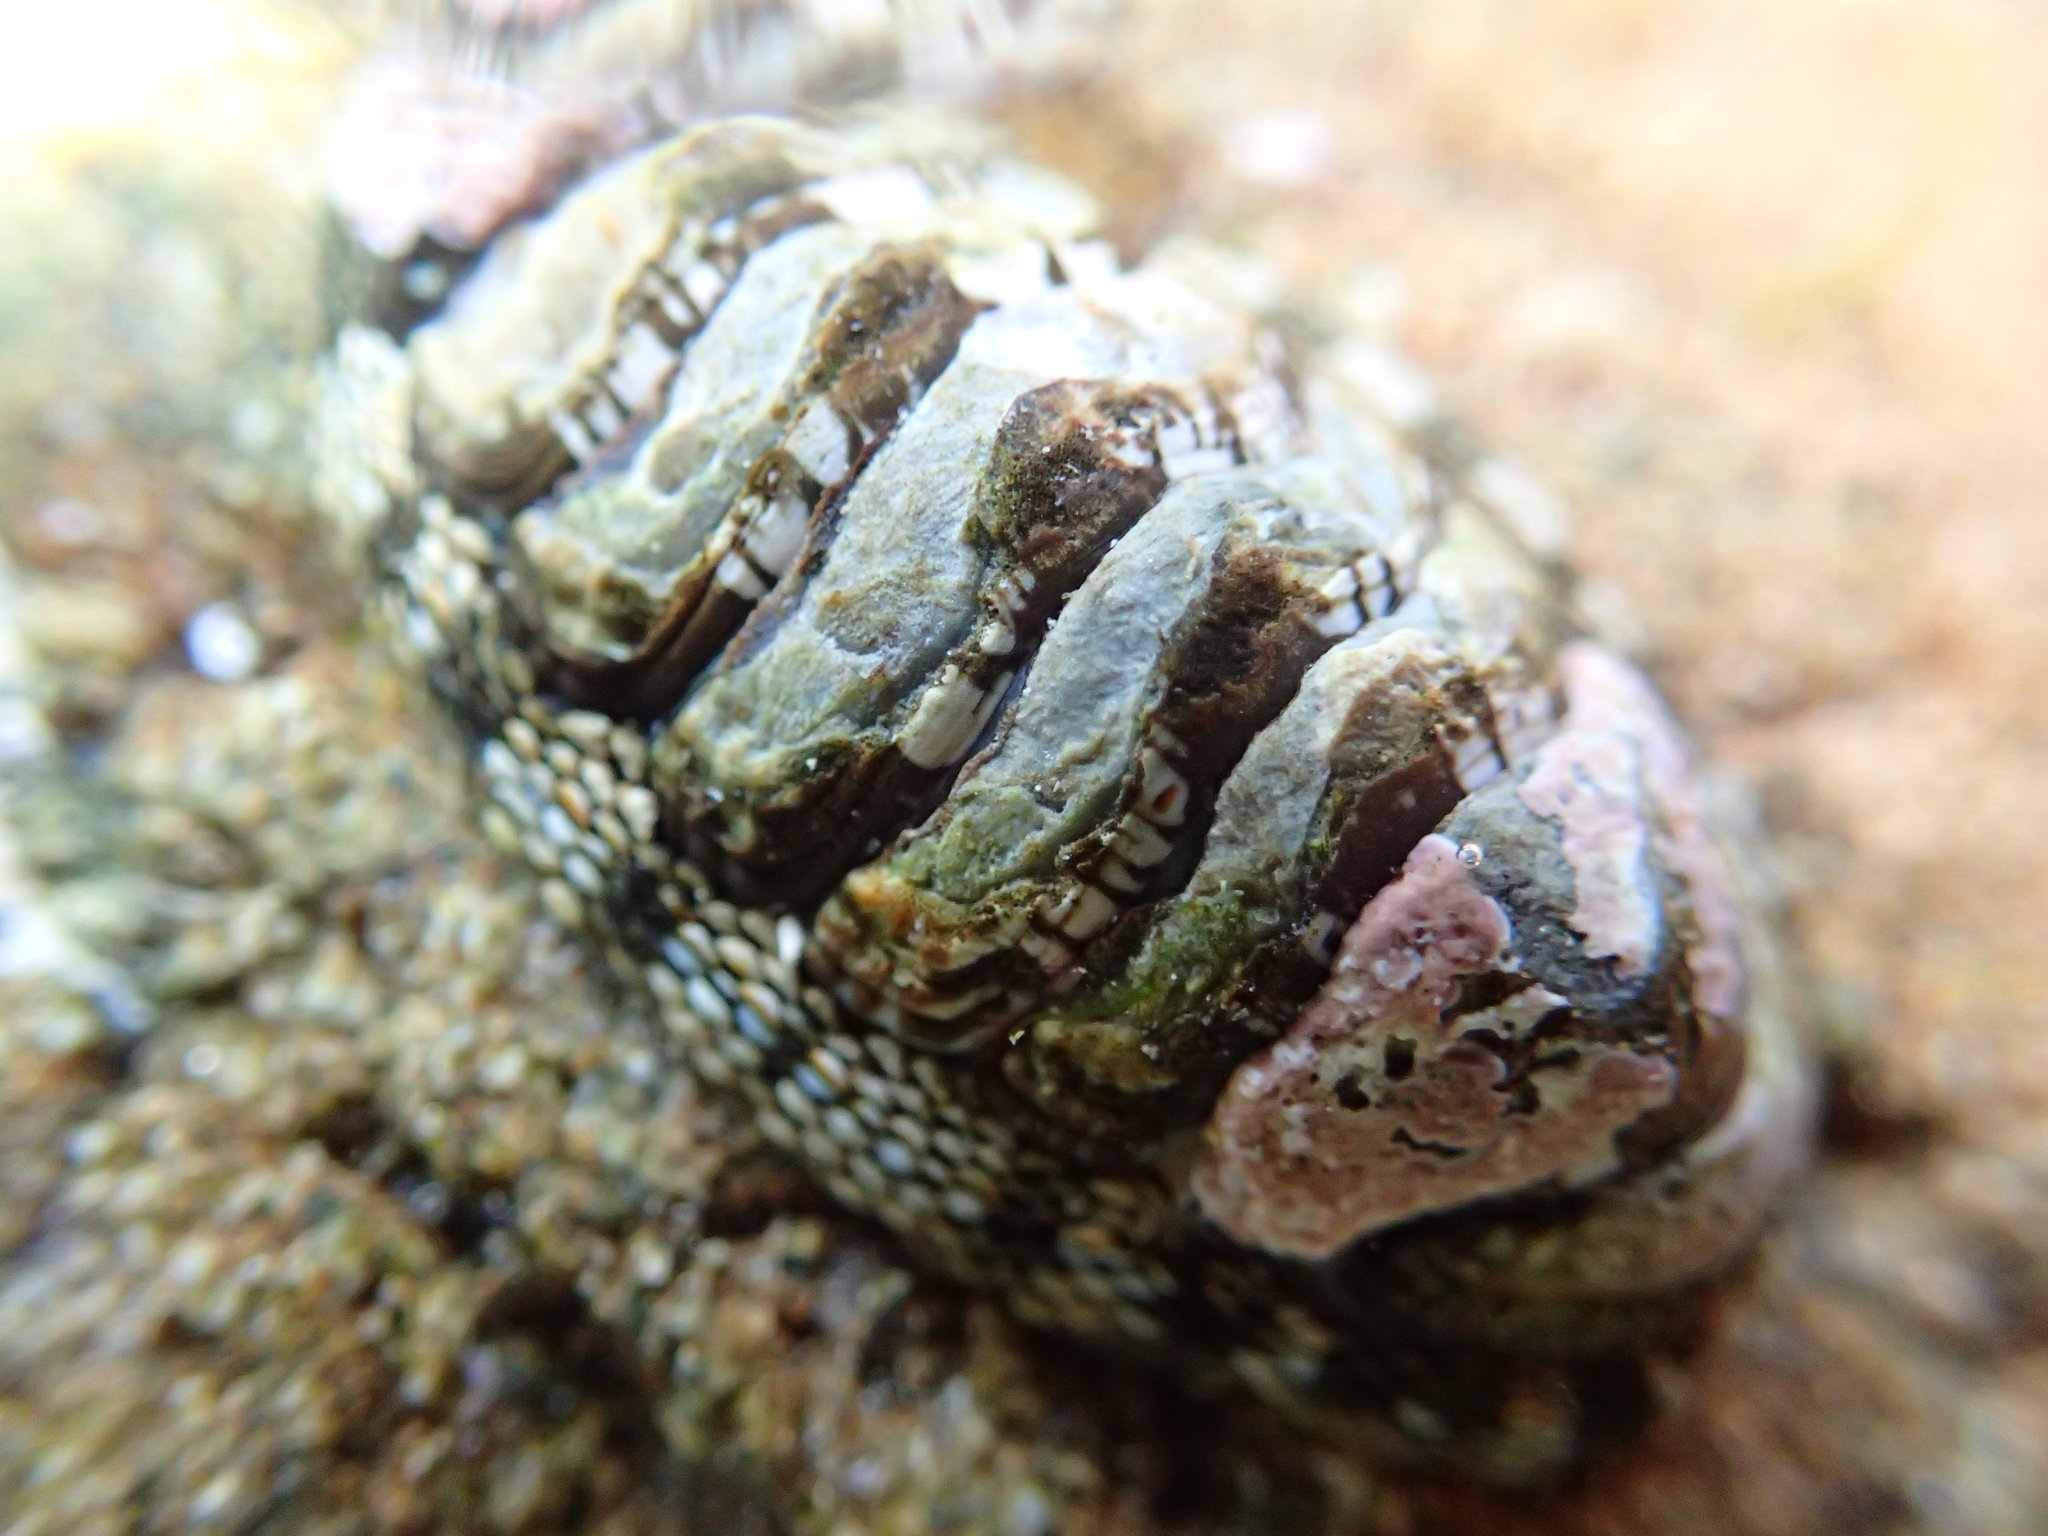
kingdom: Animalia
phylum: Mollusca
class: Polyplacophora
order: Chitonida
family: Chitonidae
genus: Sypharochiton
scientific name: Sypharochiton sinclairi
